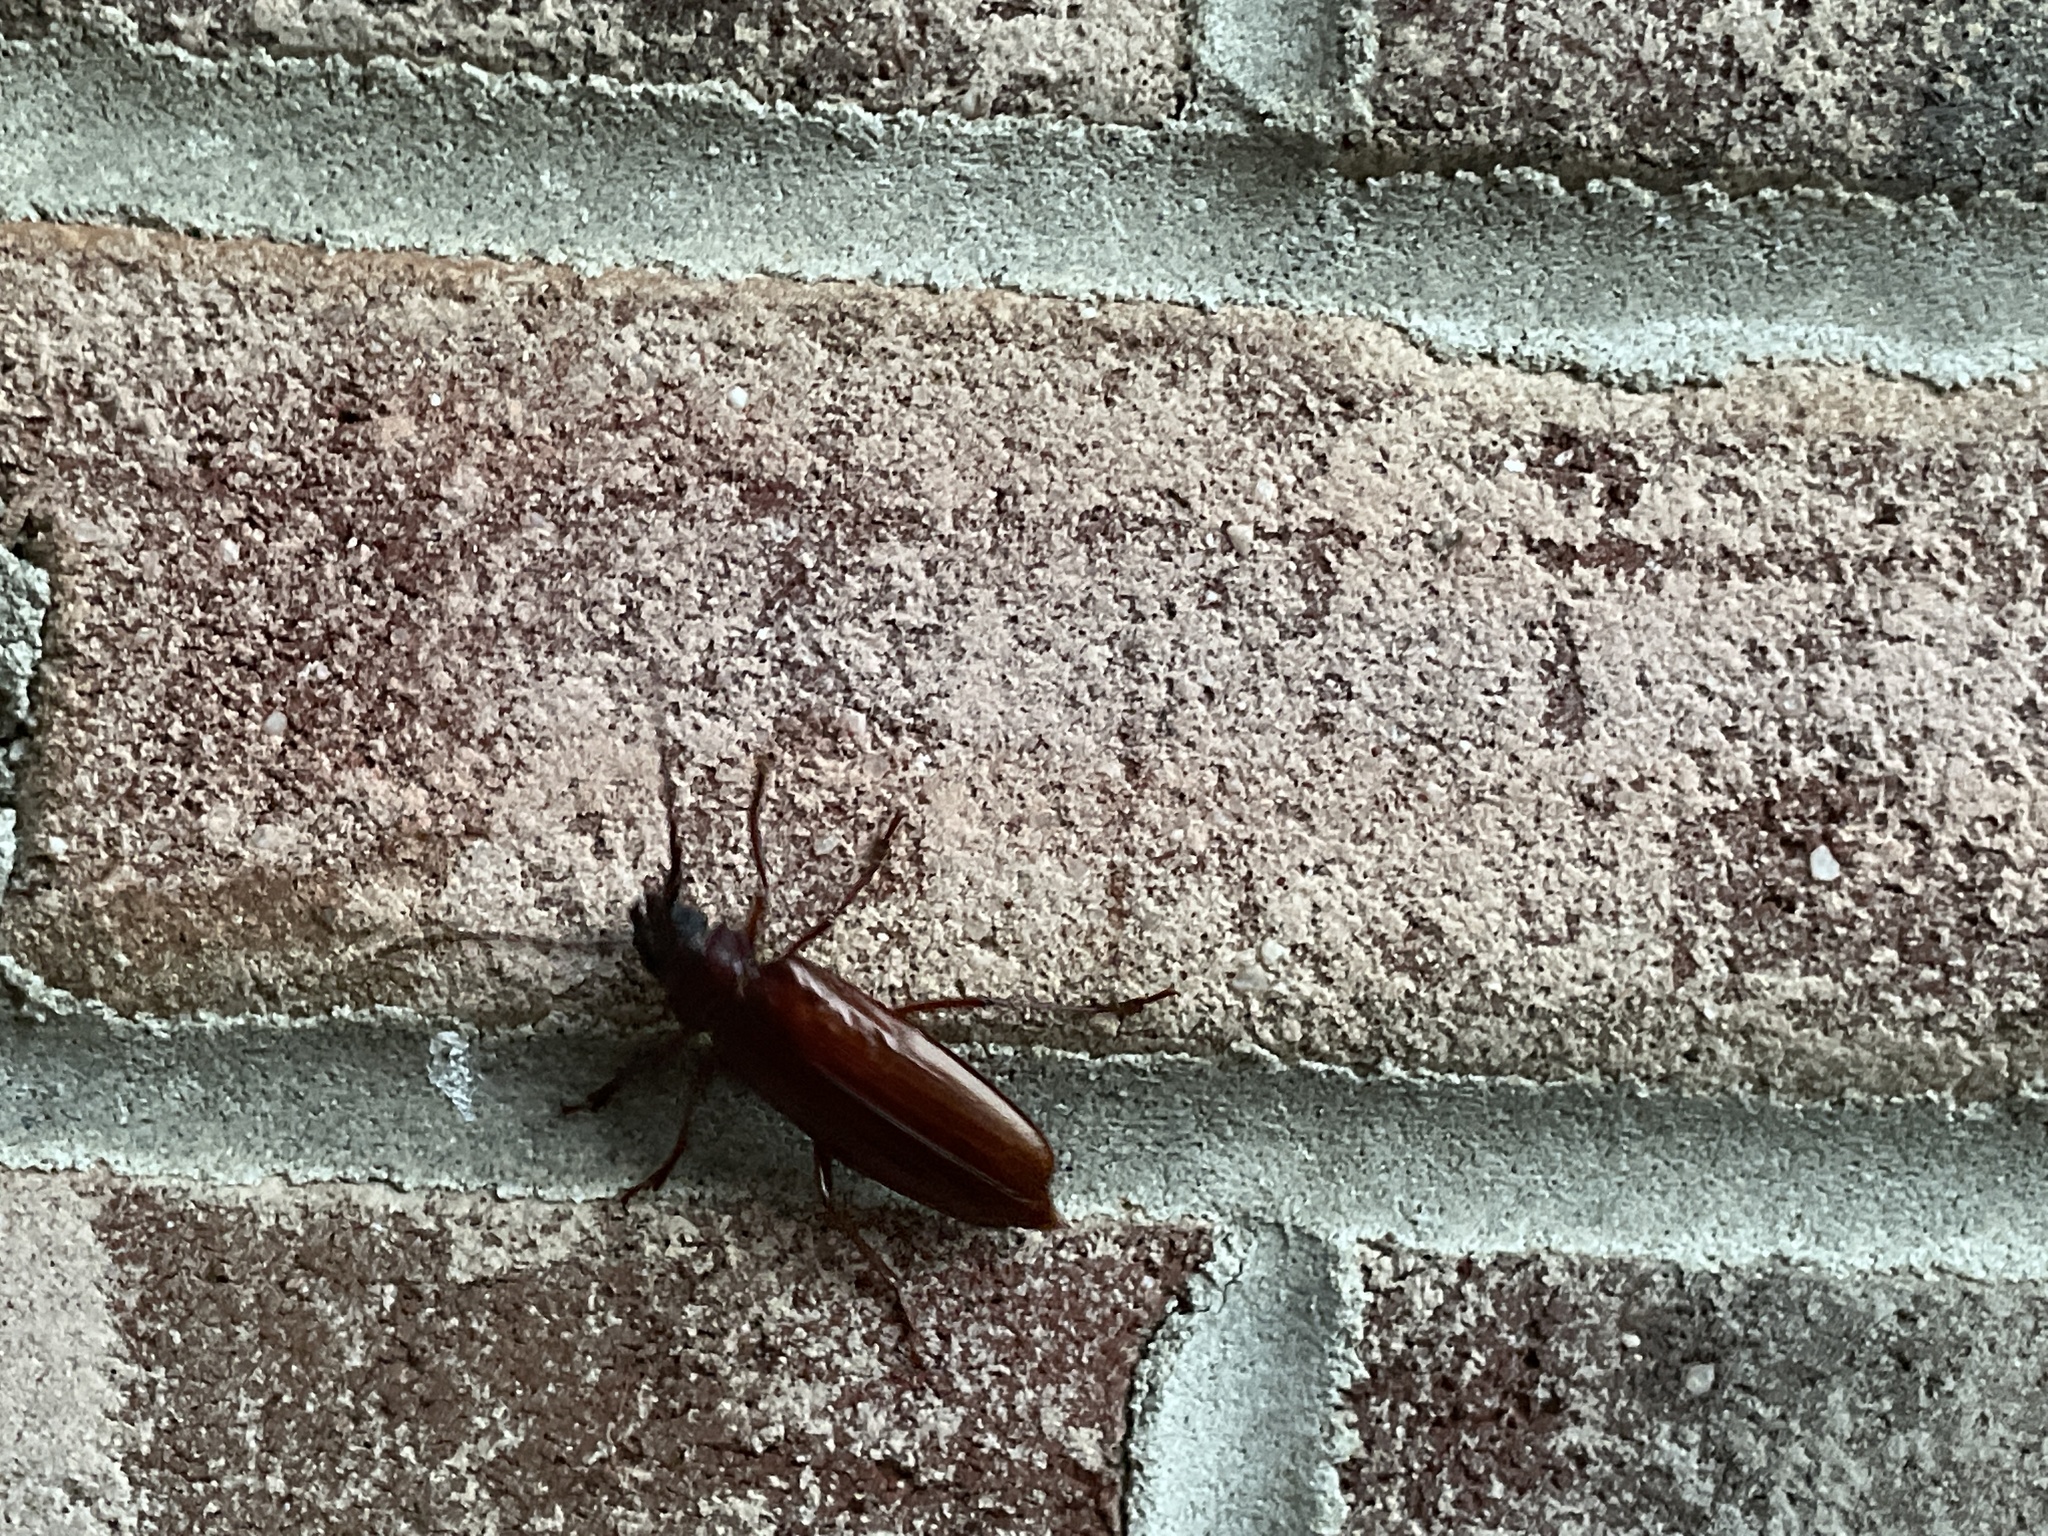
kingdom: Animalia
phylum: Arthropoda
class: Insecta
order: Coleoptera
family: Cerambycidae
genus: Orthosoma
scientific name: Orthosoma brunneum
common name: Brown prionid beetle
